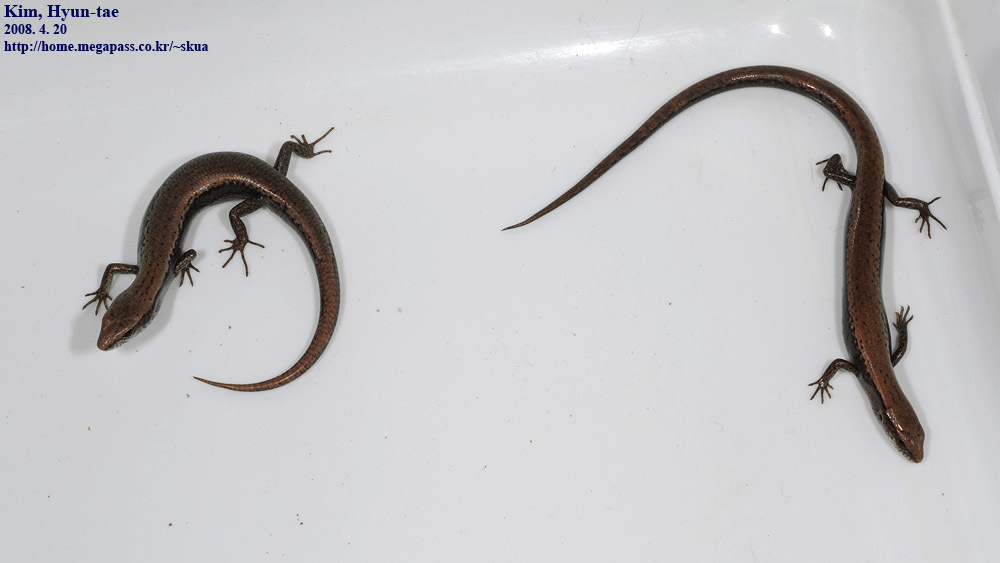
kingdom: Animalia
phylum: Chordata
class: Squamata
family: Scincidae
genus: Scincella
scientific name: Scincella vandenburghi
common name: Tsushima smooth skink
